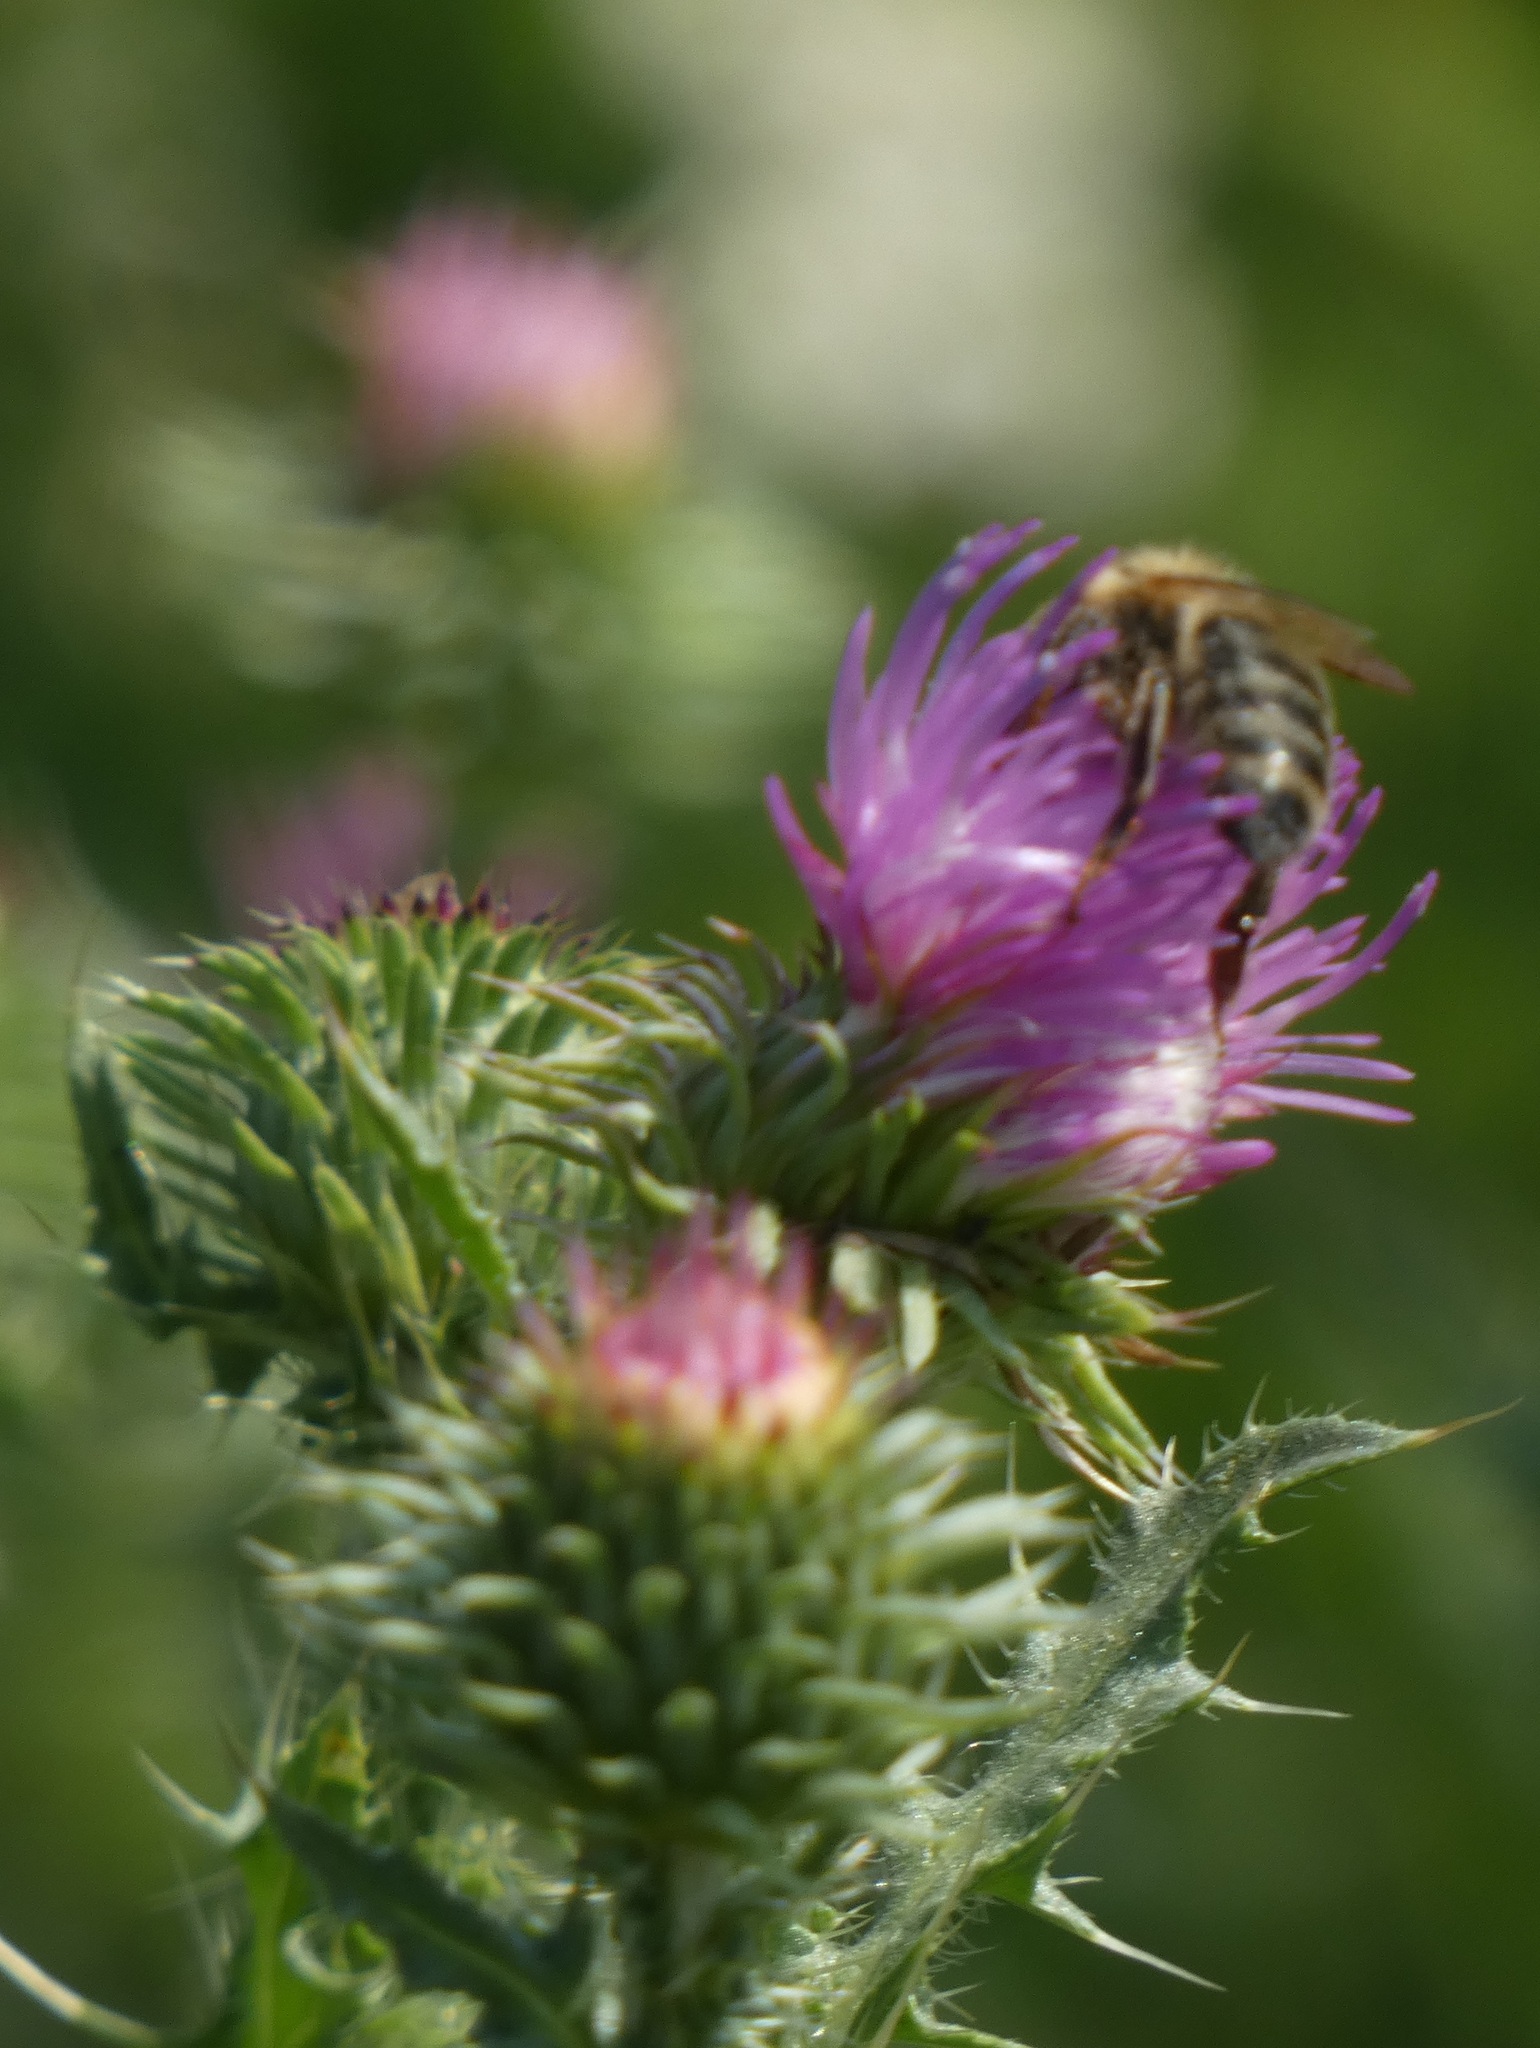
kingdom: Plantae
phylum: Tracheophyta
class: Magnoliopsida
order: Asterales
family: Asteraceae
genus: Carduus
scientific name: Carduus acanthoides
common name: Plumeless thistle
